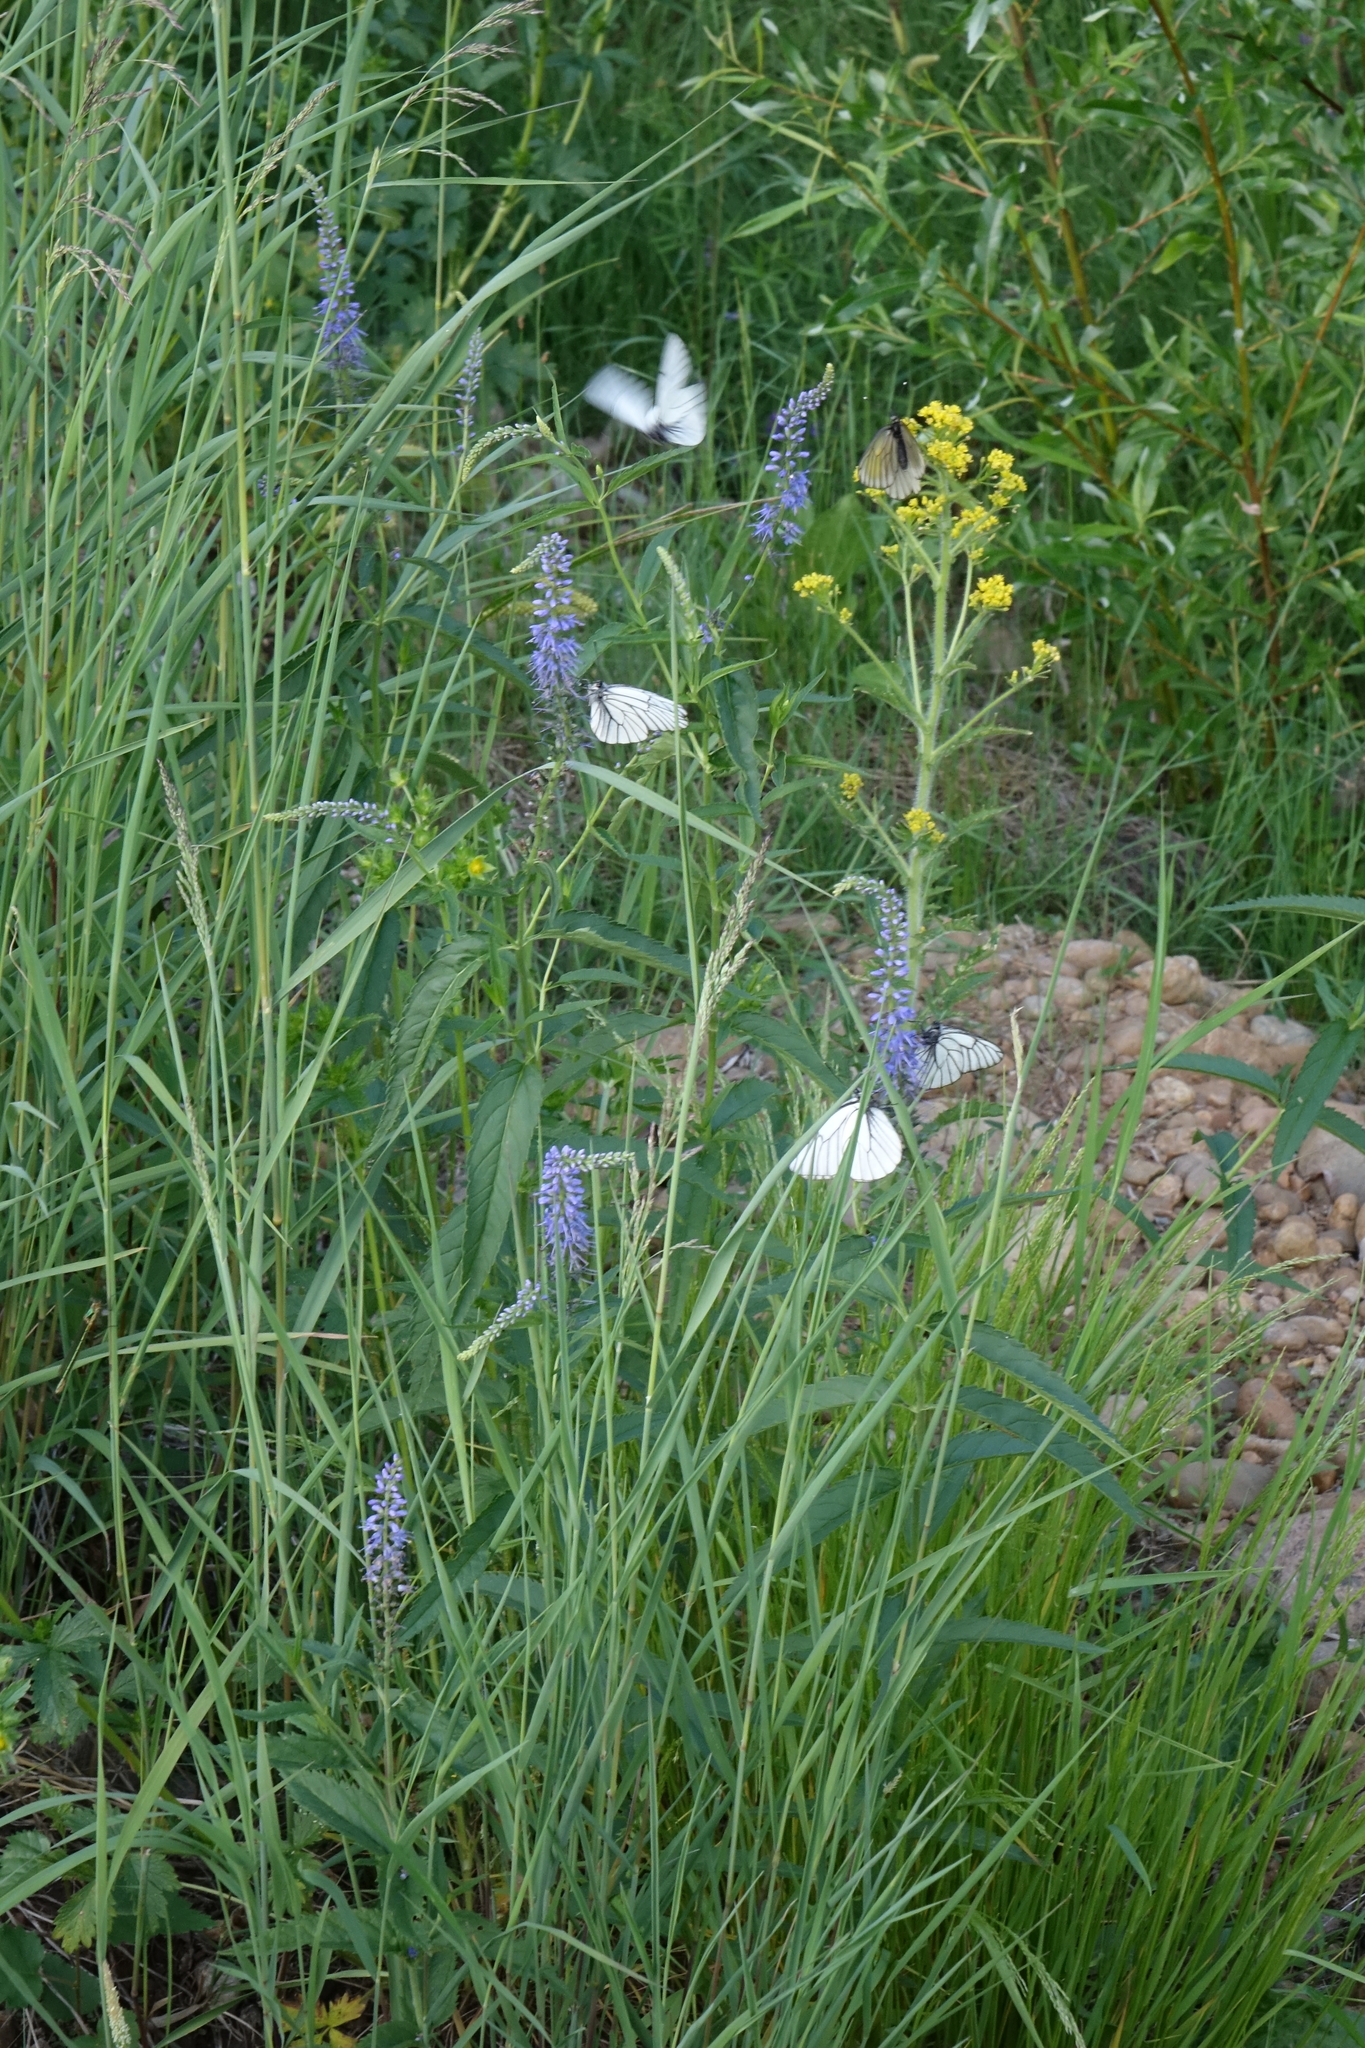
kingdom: Animalia
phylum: Arthropoda
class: Insecta
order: Lepidoptera
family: Pieridae
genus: Aporia
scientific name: Aporia crataegi
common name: Black-veined white
